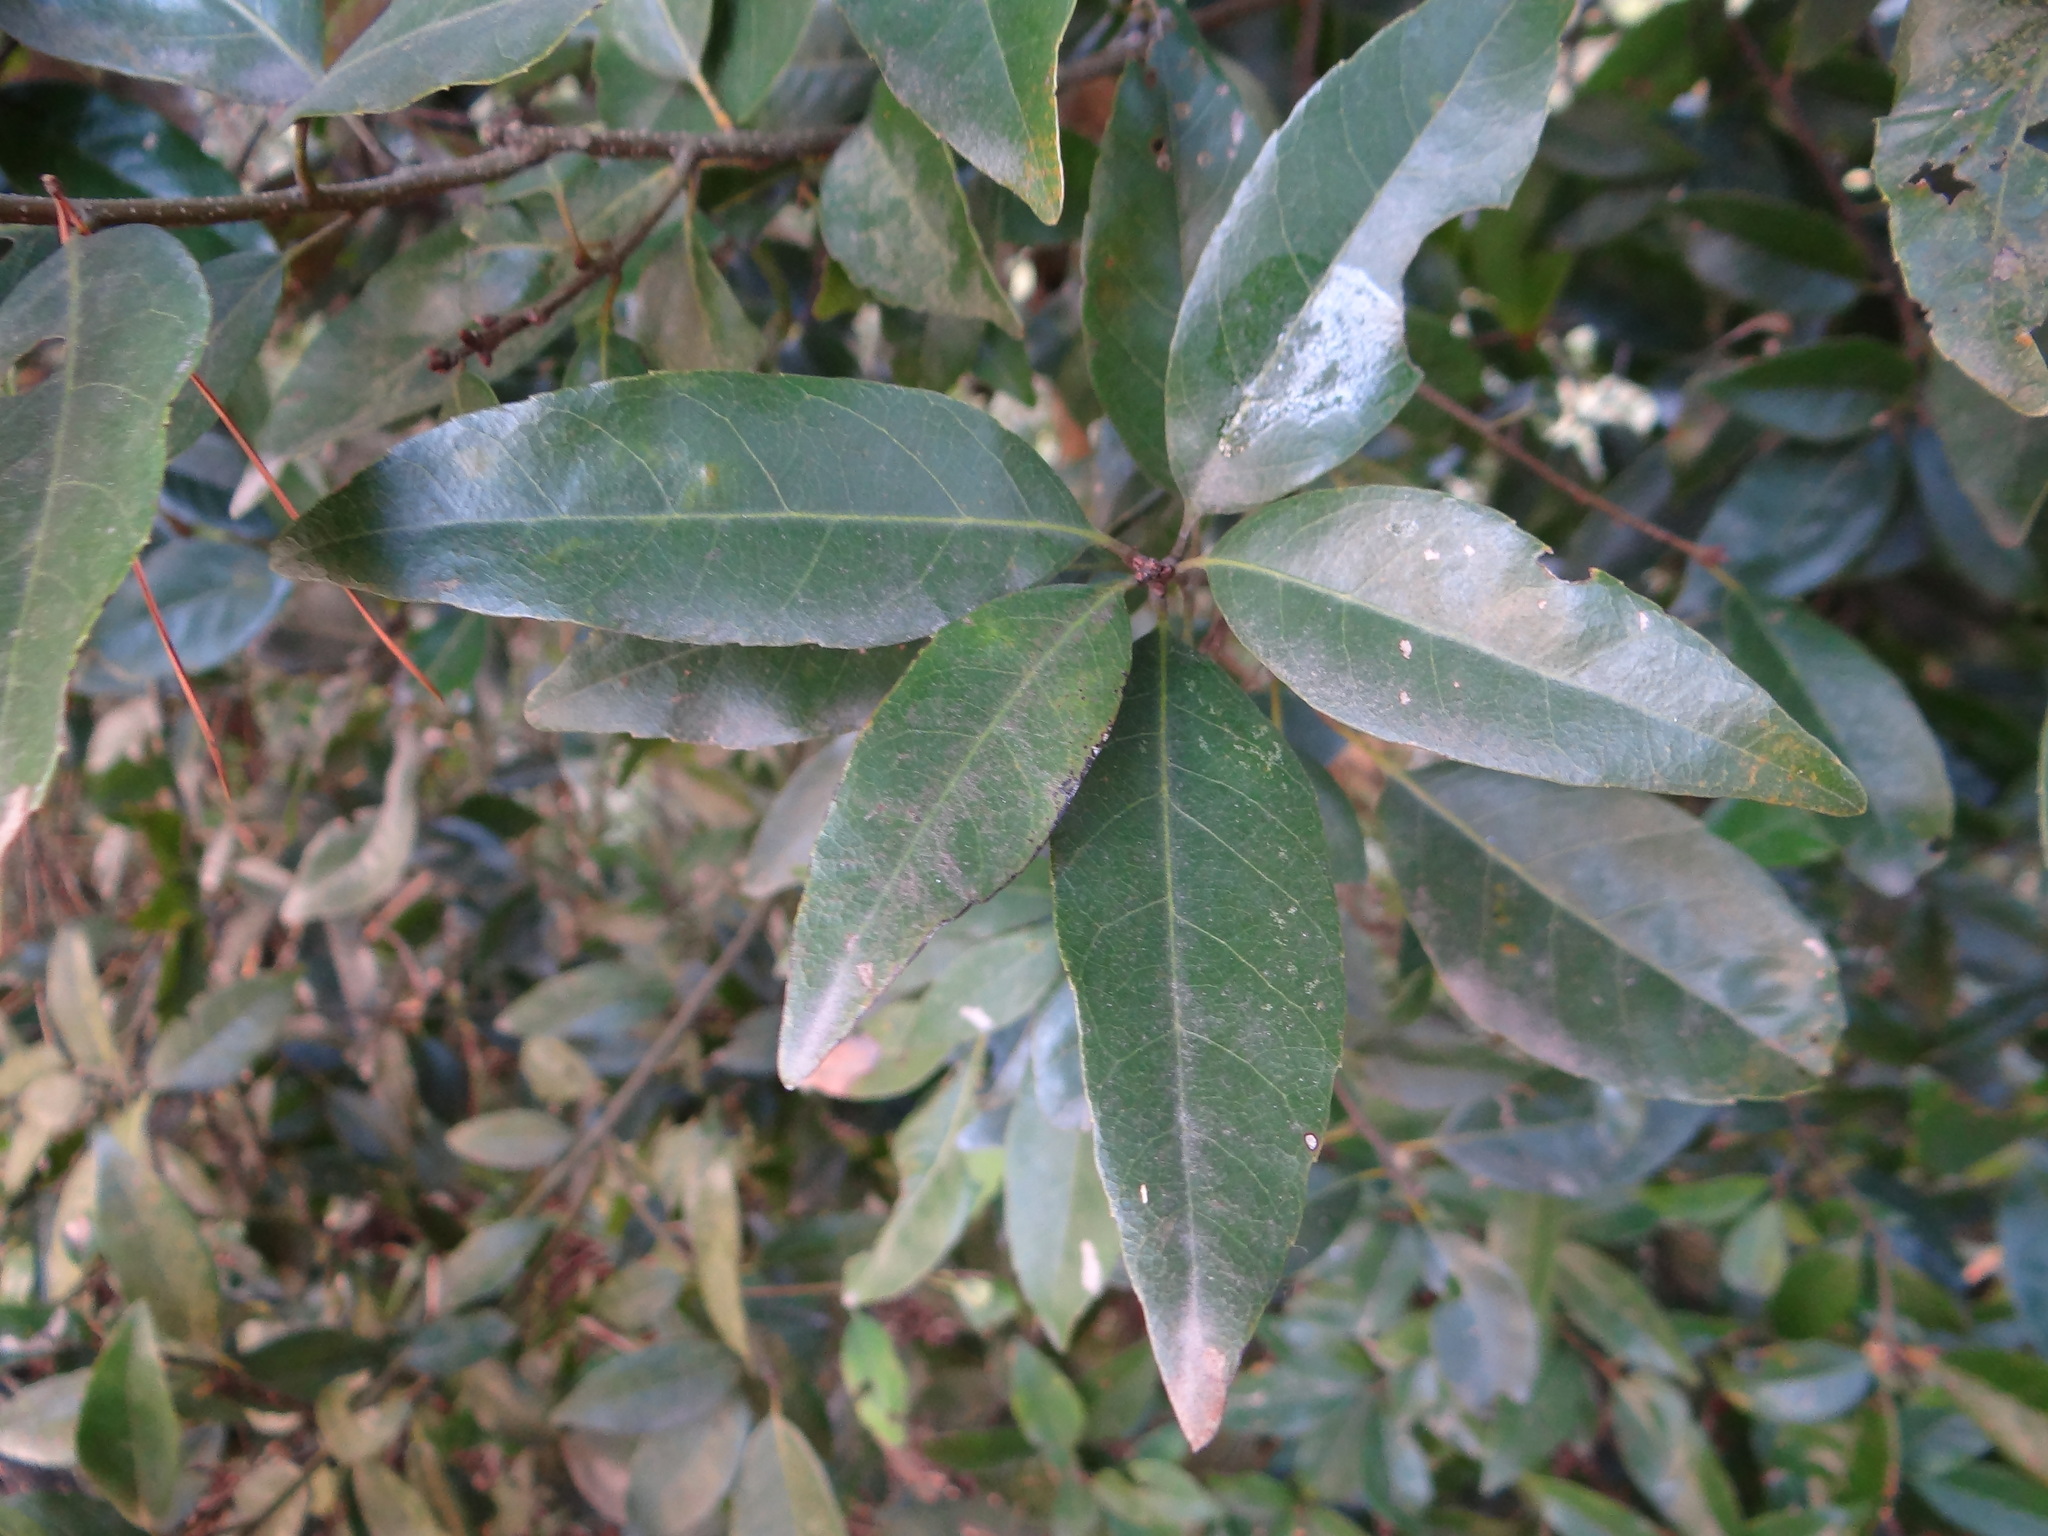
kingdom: Plantae
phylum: Tracheophyta
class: Magnoliopsida
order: Fagales
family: Fagaceae
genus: Quercus
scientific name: Quercus glauca
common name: Ring-cup oak
